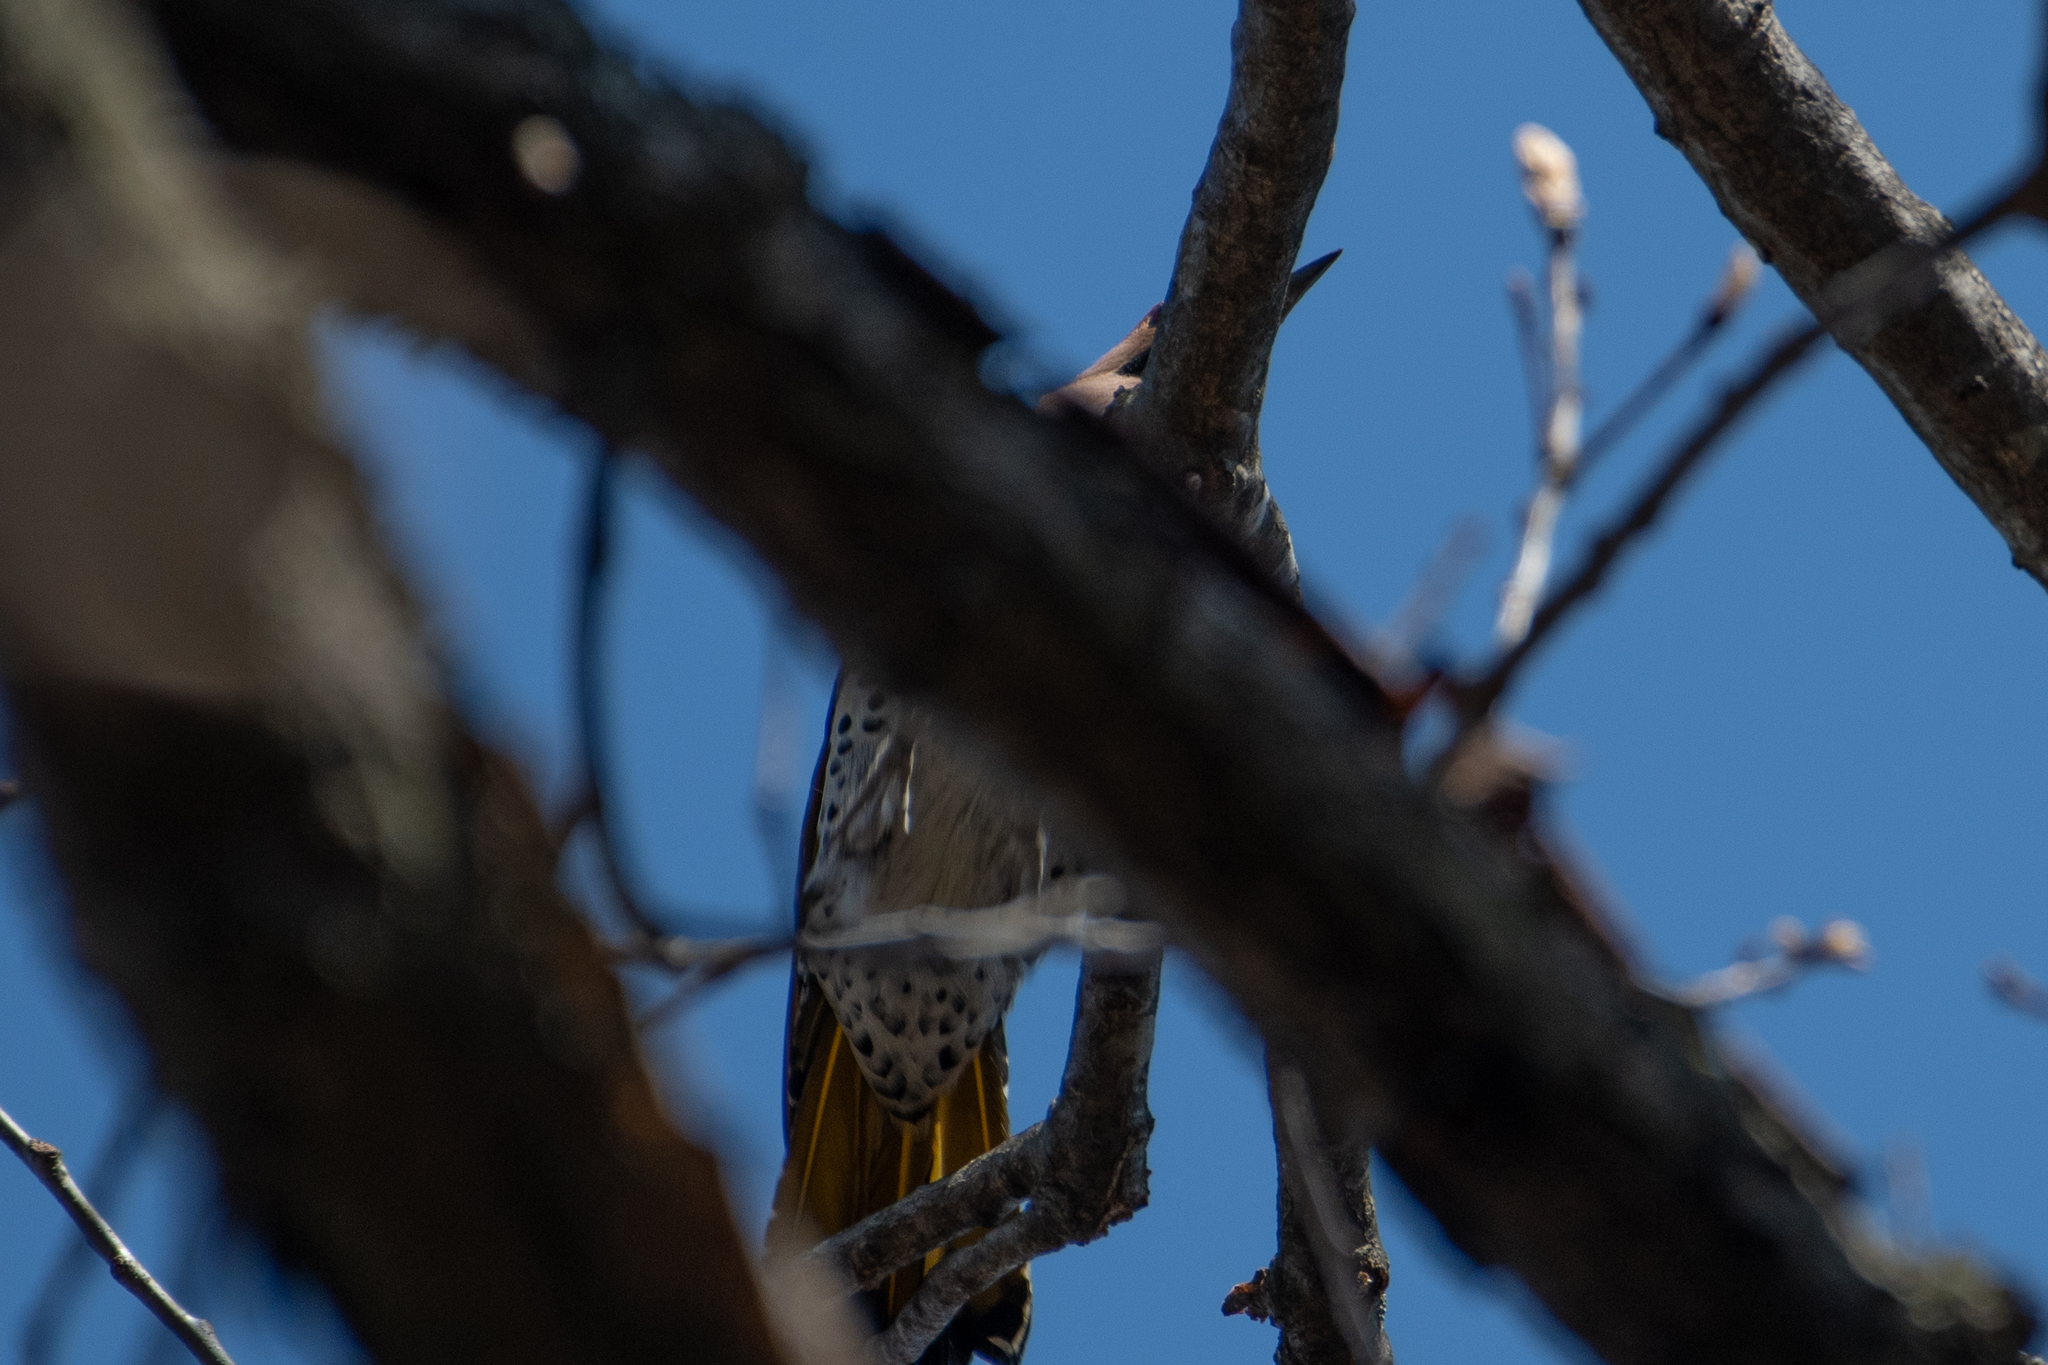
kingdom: Animalia
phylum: Chordata
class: Aves
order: Piciformes
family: Picidae
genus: Colaptes
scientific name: Colaptes auratus
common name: Northern flicker
